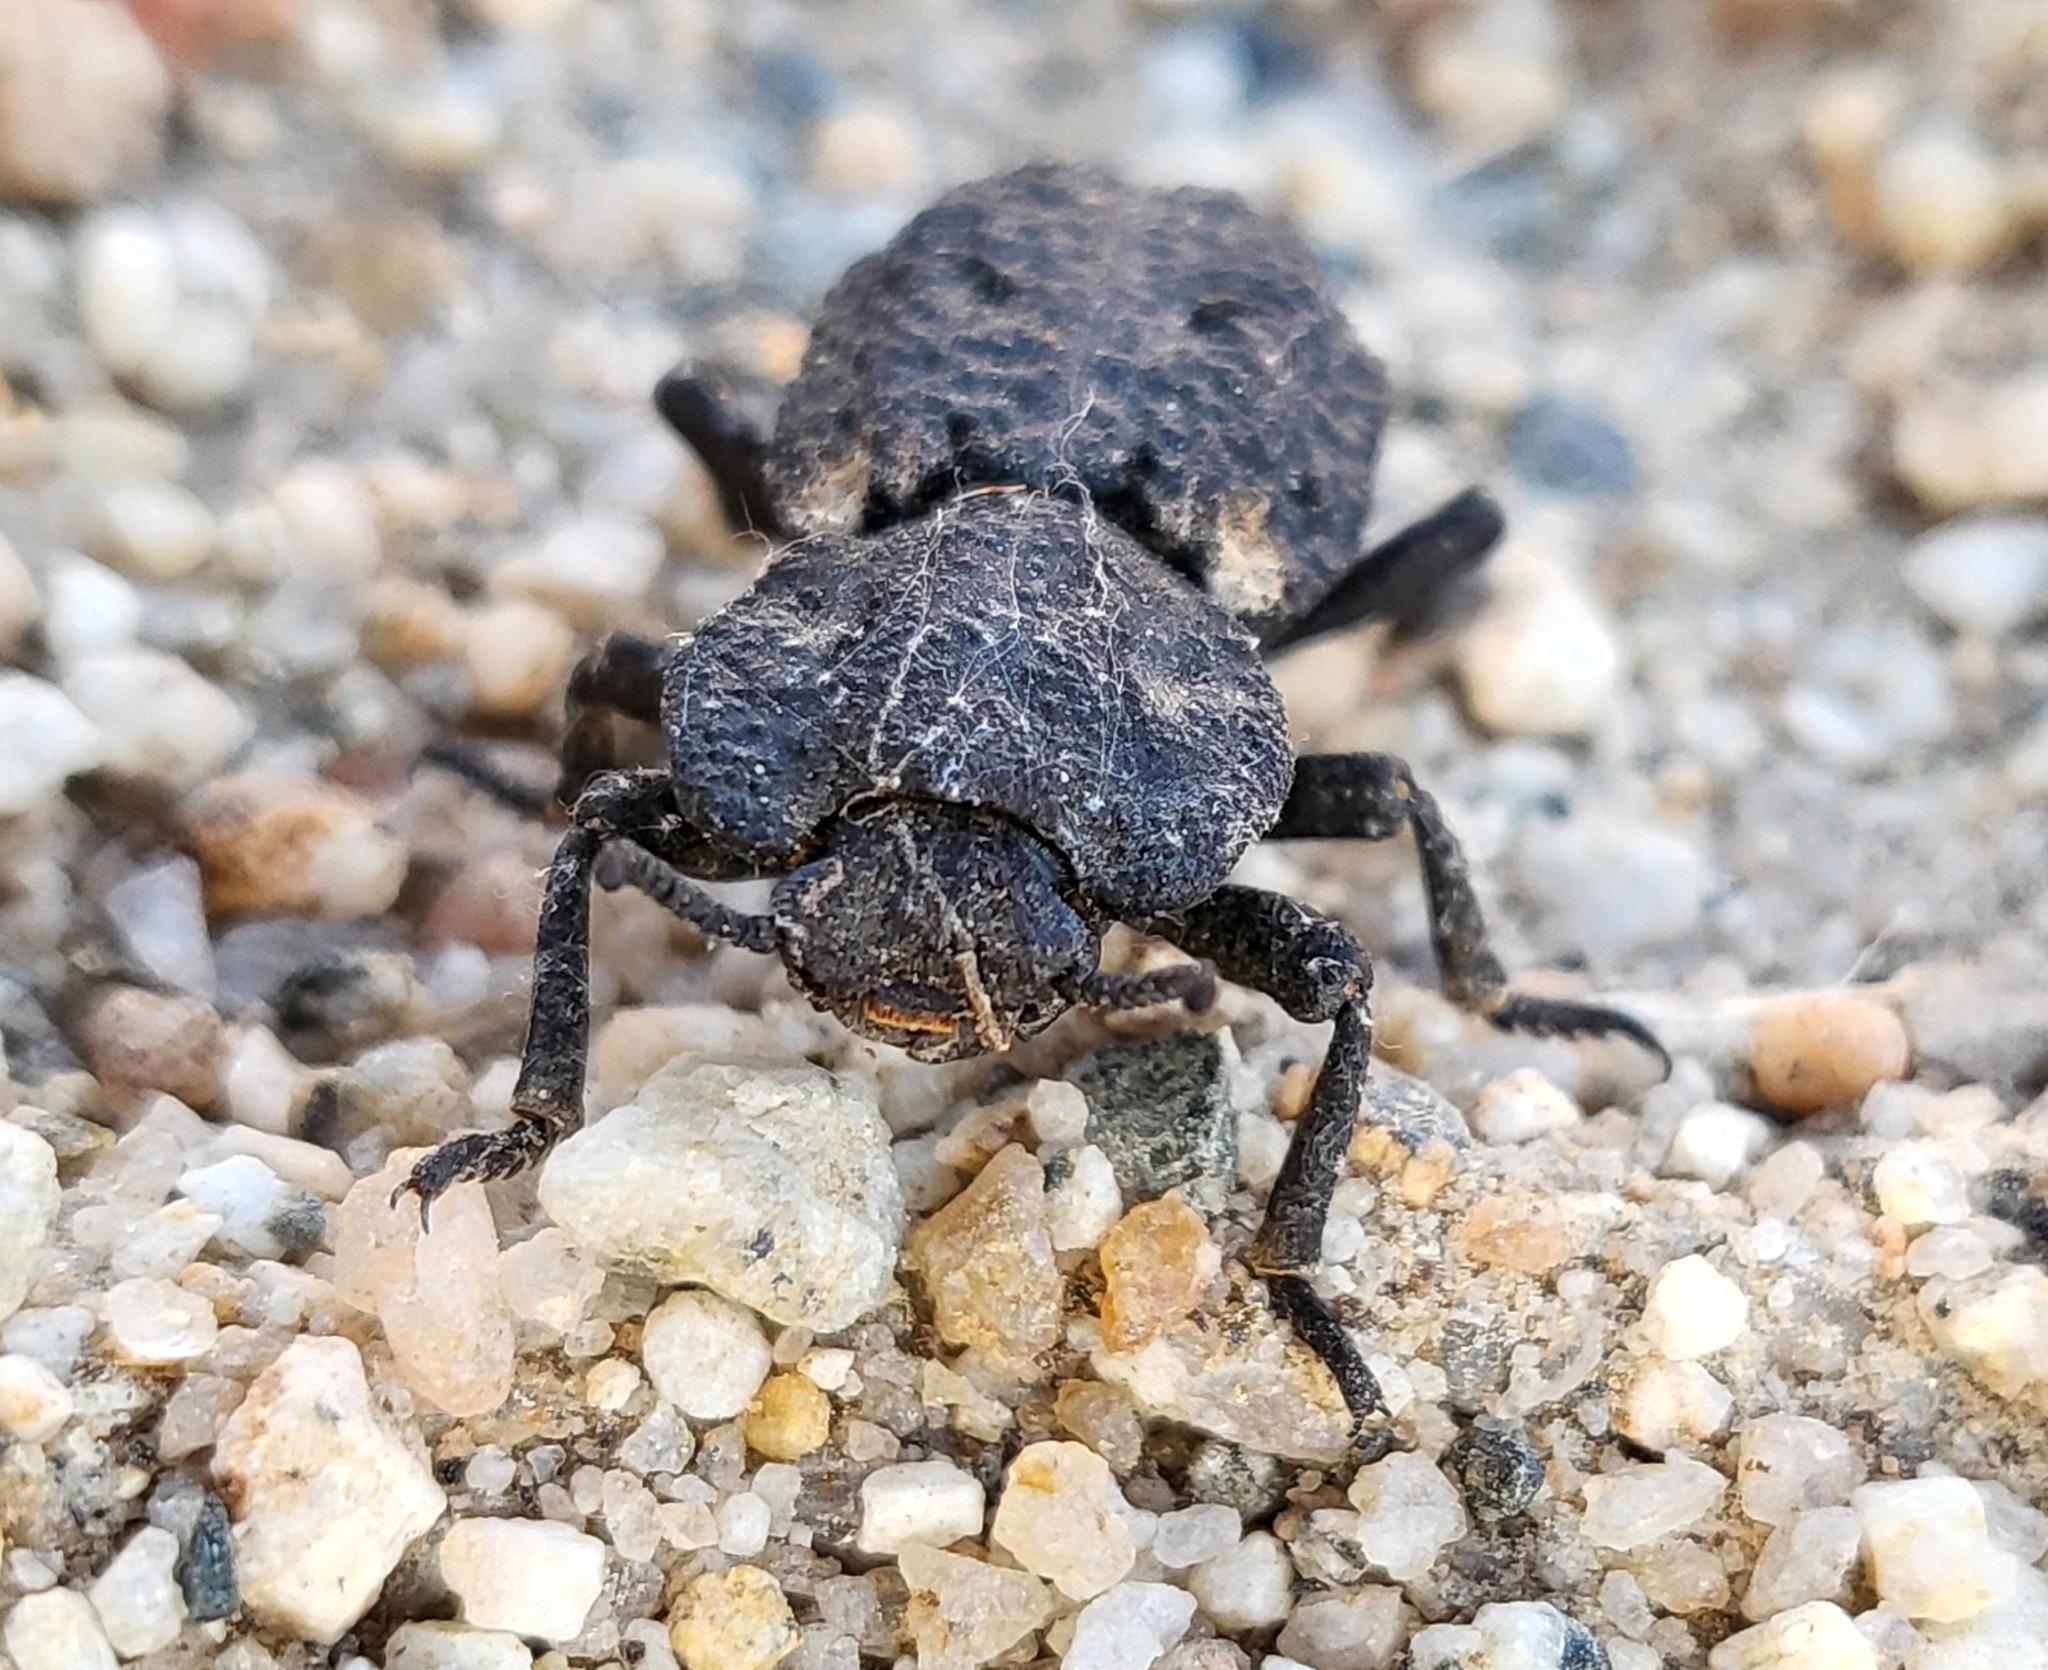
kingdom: Animalia
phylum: Arthropoda
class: Insecta
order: Coleoptera
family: Zopheridae
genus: Phloeodes
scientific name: Phloeodes diabolicus
